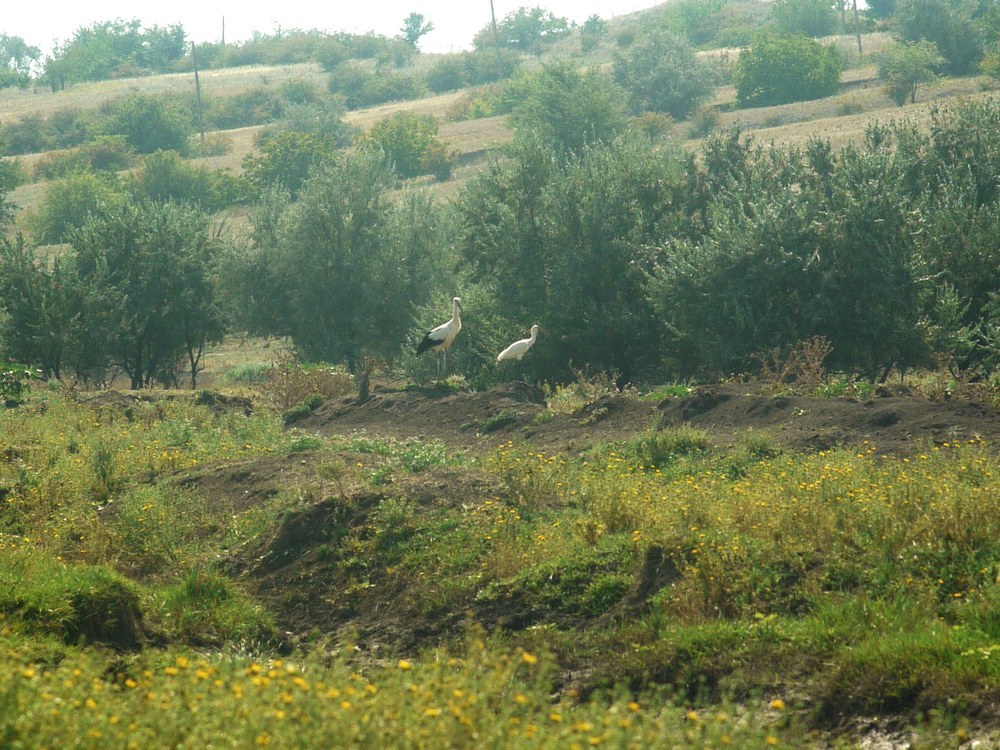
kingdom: Animalia
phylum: Chordata
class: Aves
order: Ciconiiformes
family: Ciconiidae
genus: Ciconia
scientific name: Ciconia ciconia
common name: White stork
